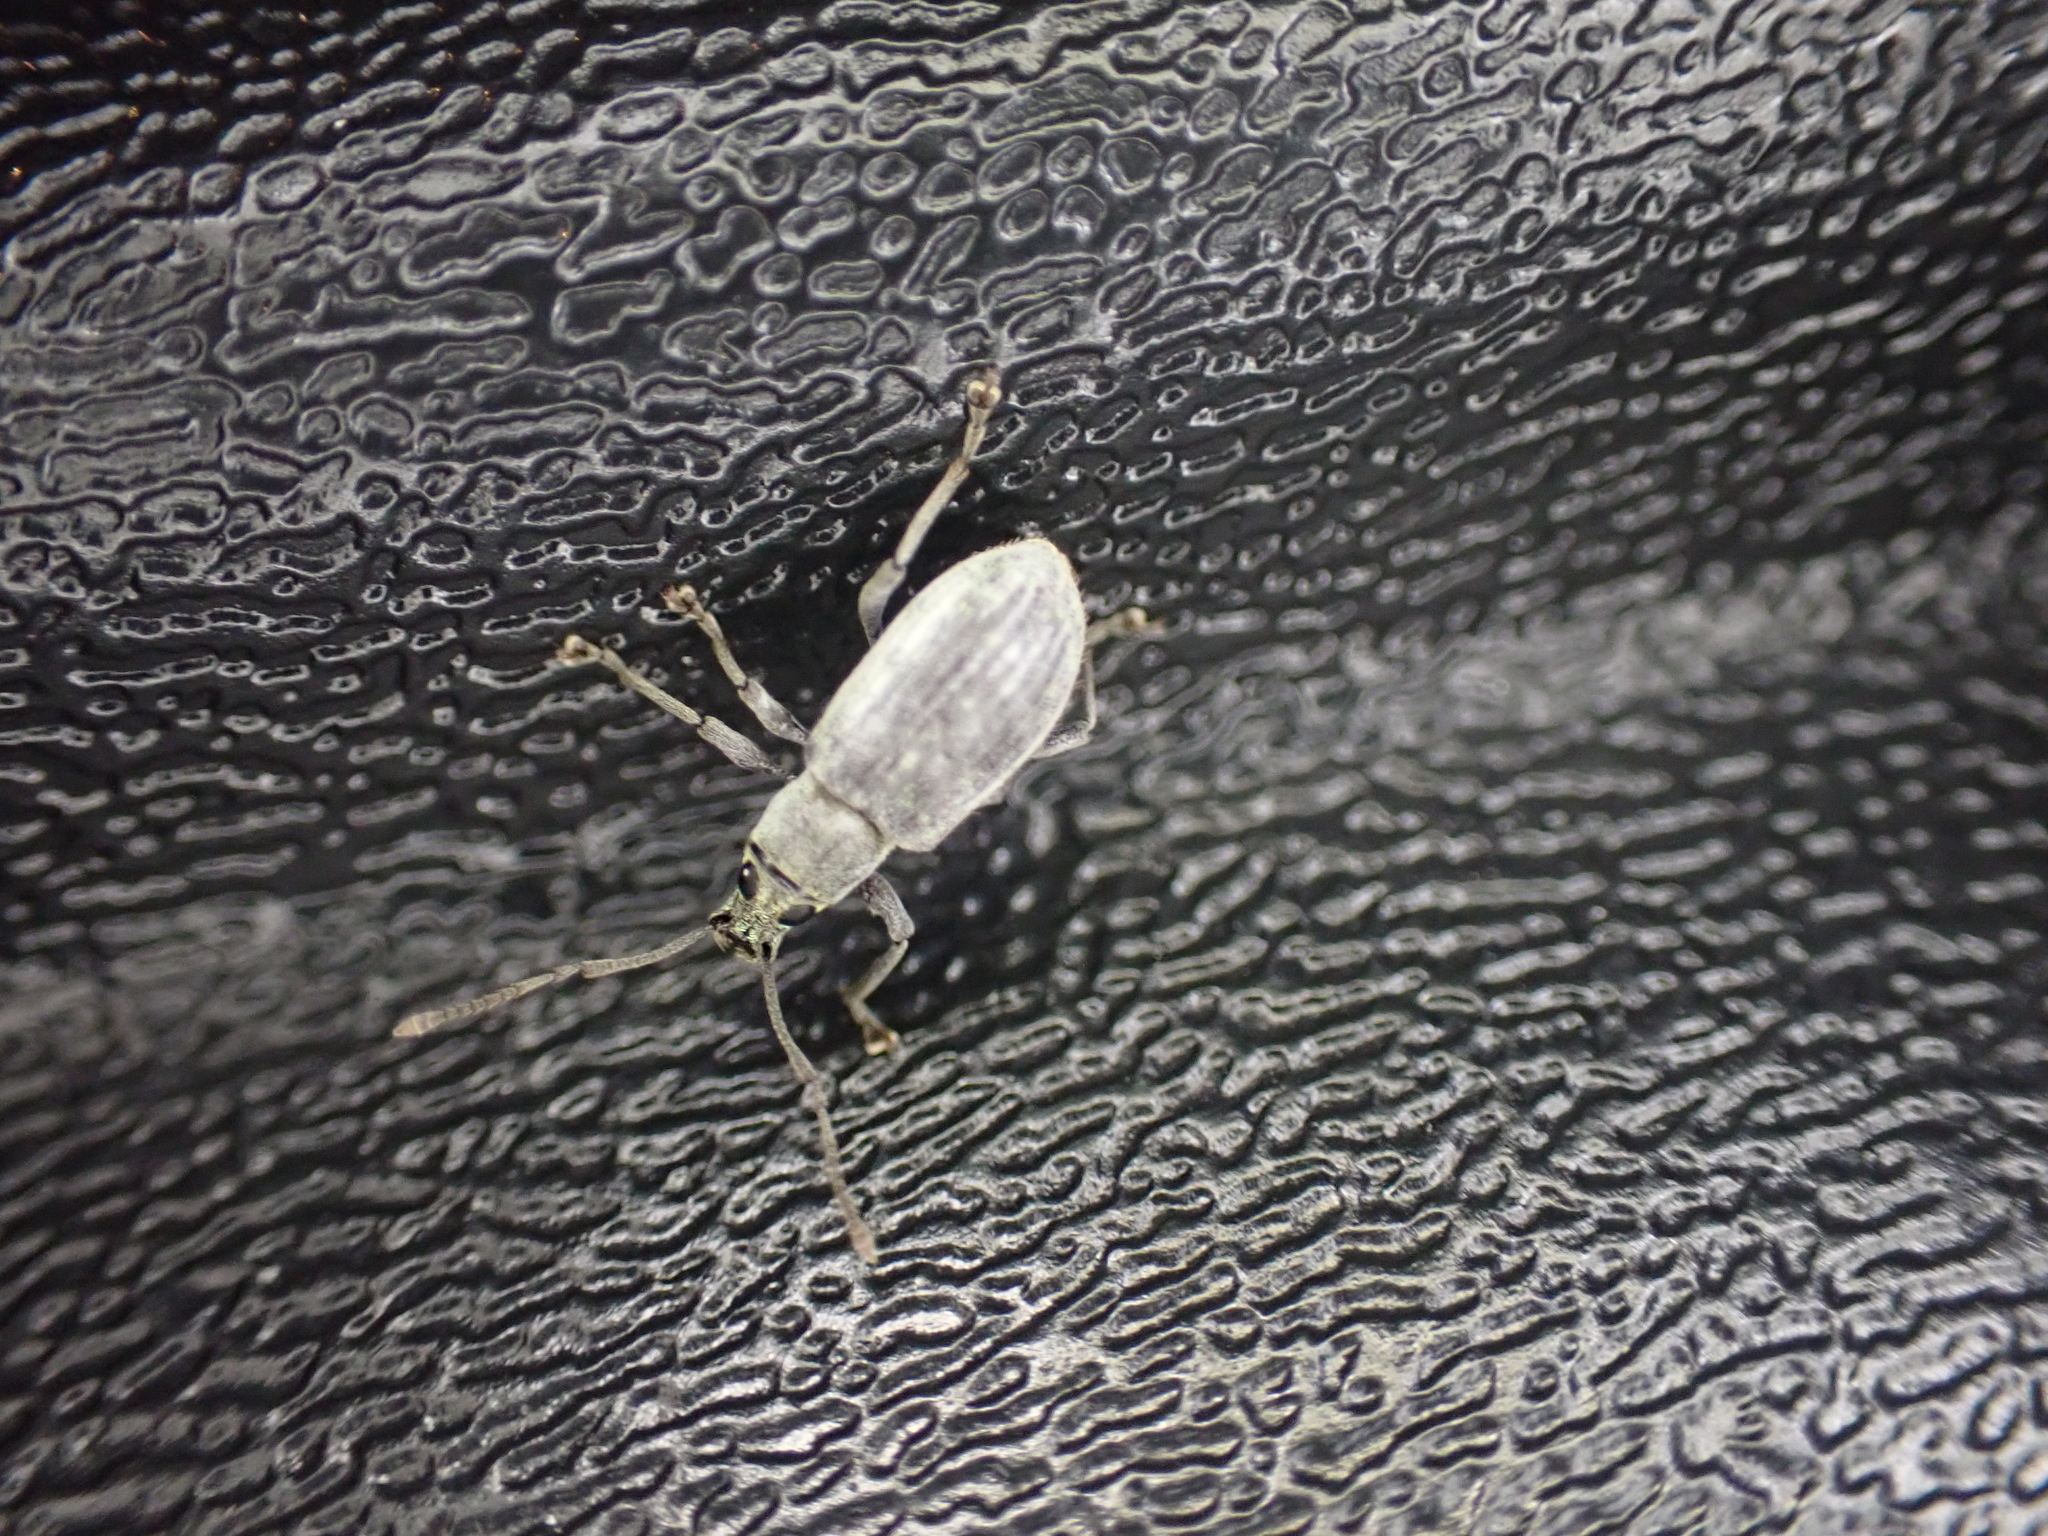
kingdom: Animalia
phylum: Arthropoda
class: Insecta
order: Coleoptera
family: Curculionidae
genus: Cyrtepistomus
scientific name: Cyrtepistomus castaneus
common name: Weevil
